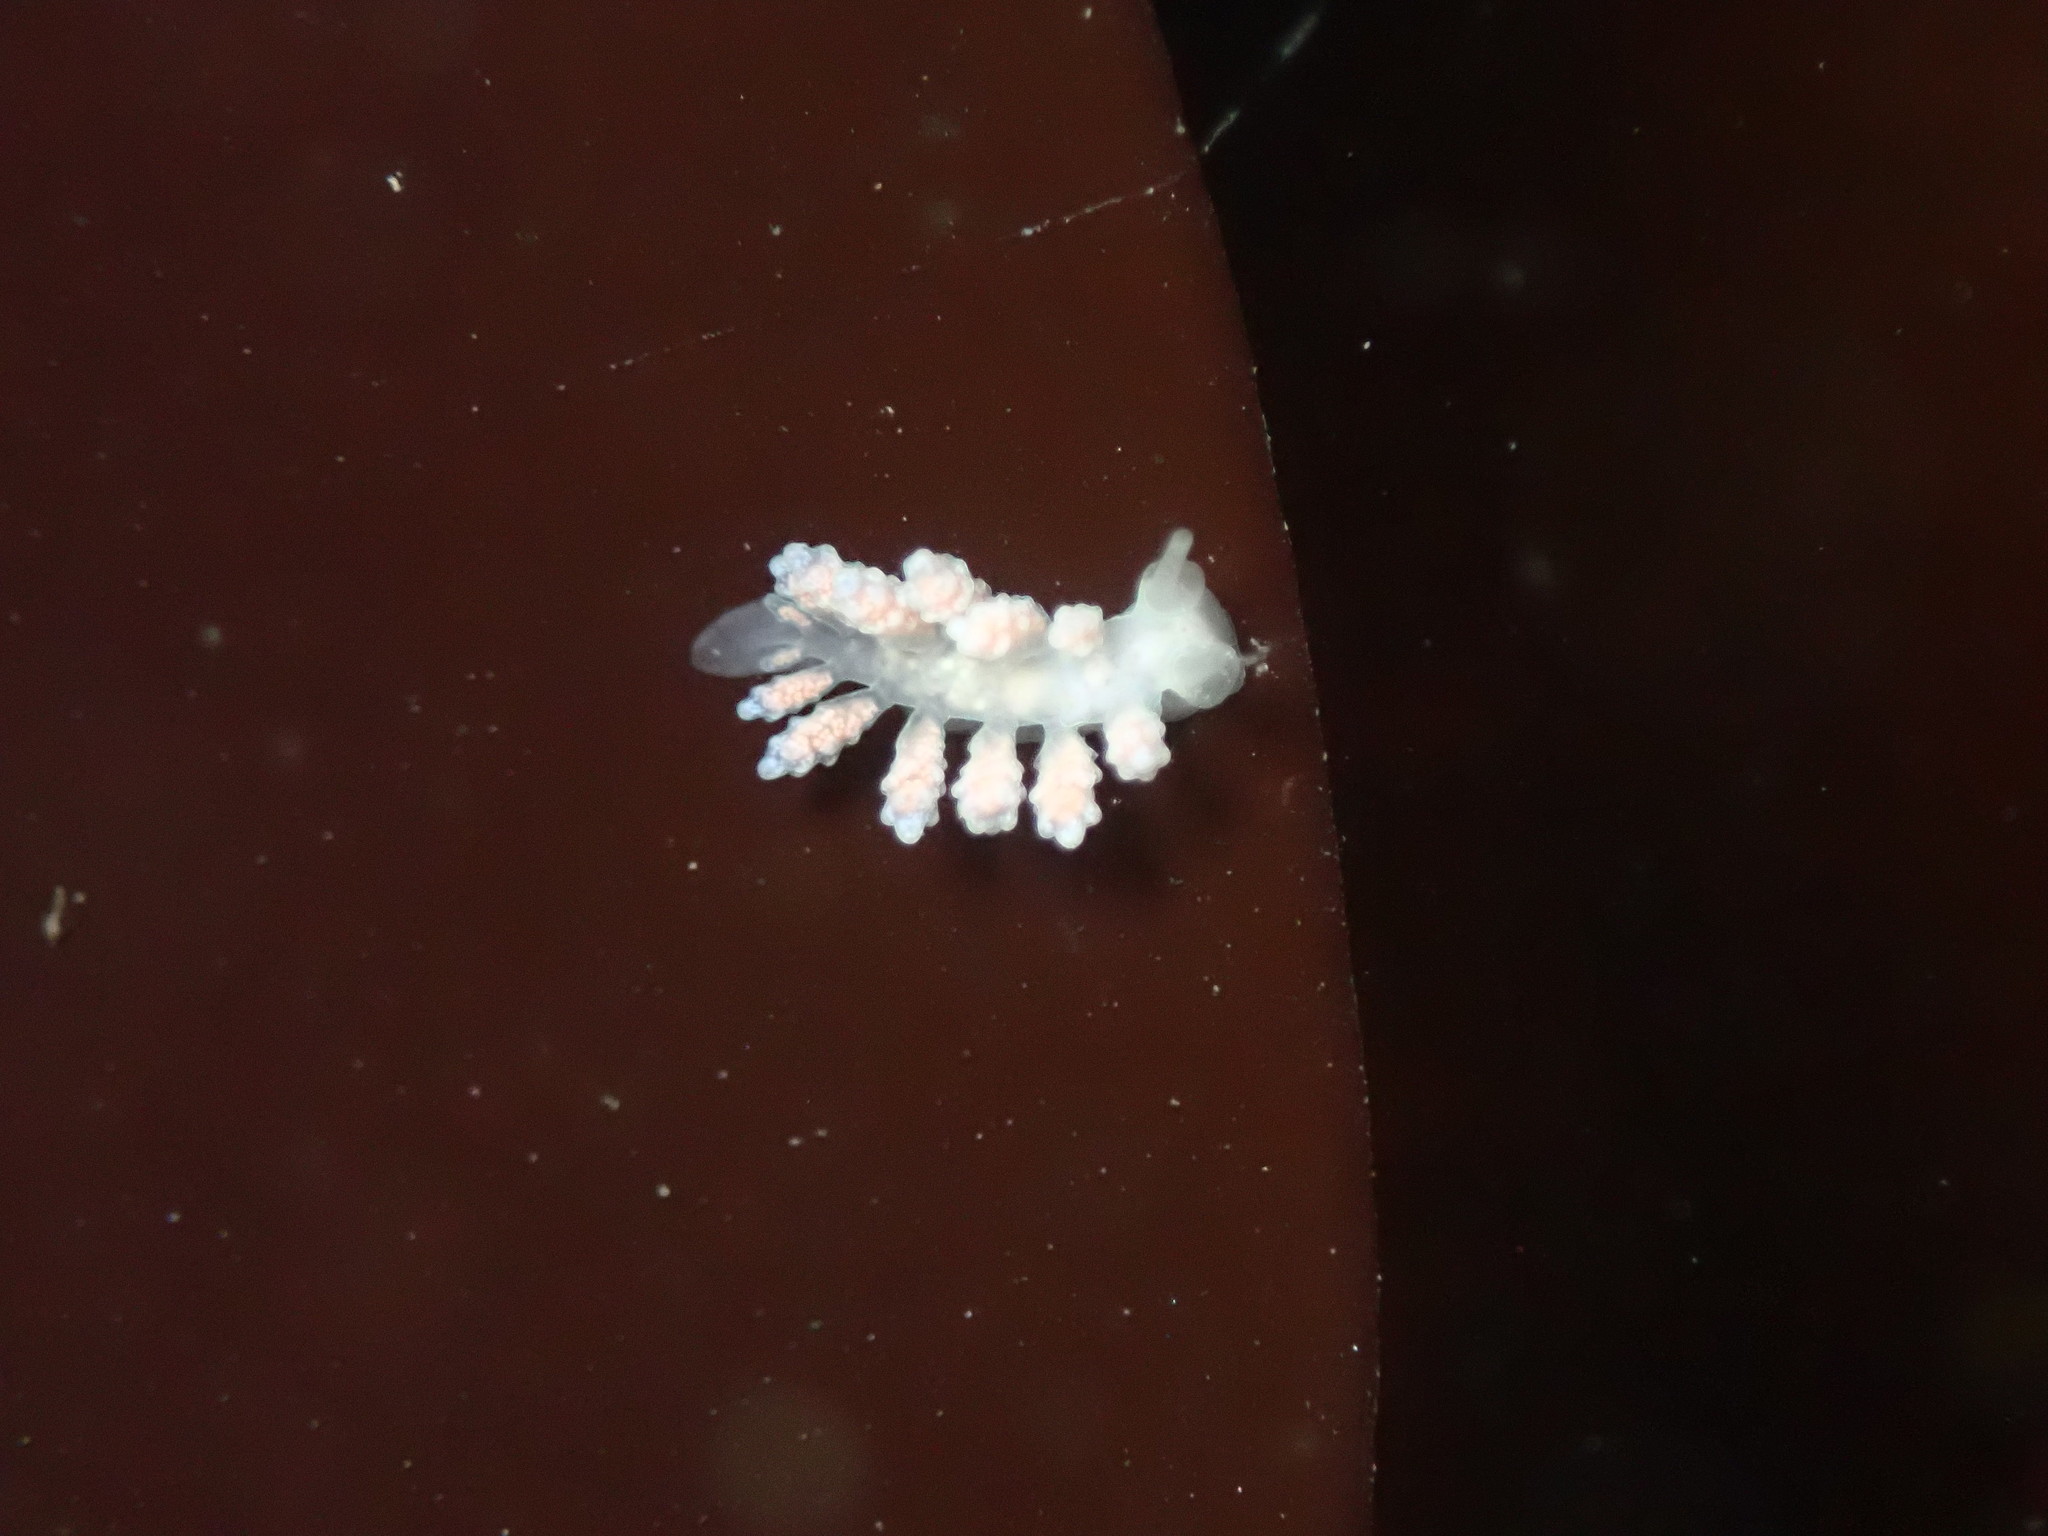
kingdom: Animalia
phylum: Mollusca
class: Gastropoda
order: Nudibranchia
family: Dotidae
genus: Doto
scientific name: Doto amyra
